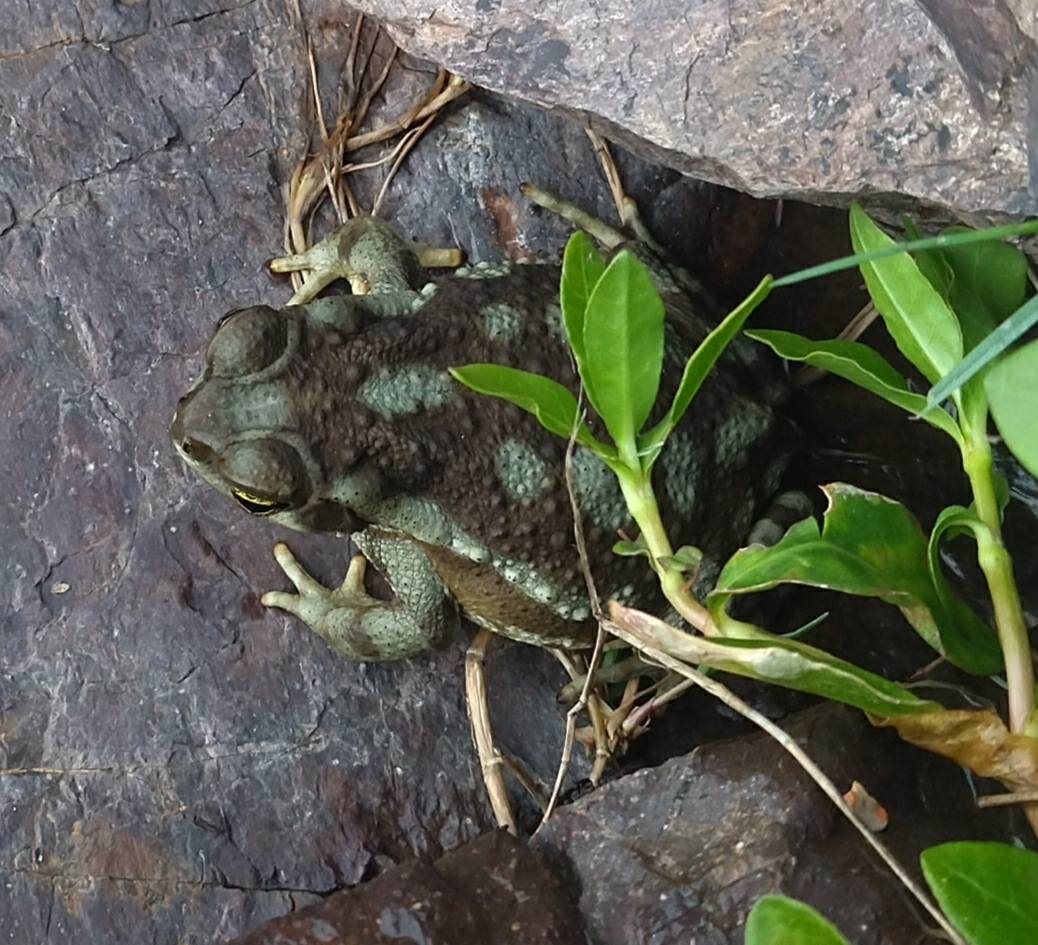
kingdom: Animalia
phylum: Chordata
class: Amphibia
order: Anura
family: Bufonidae
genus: Rhinella
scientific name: Rhinella arenarum
